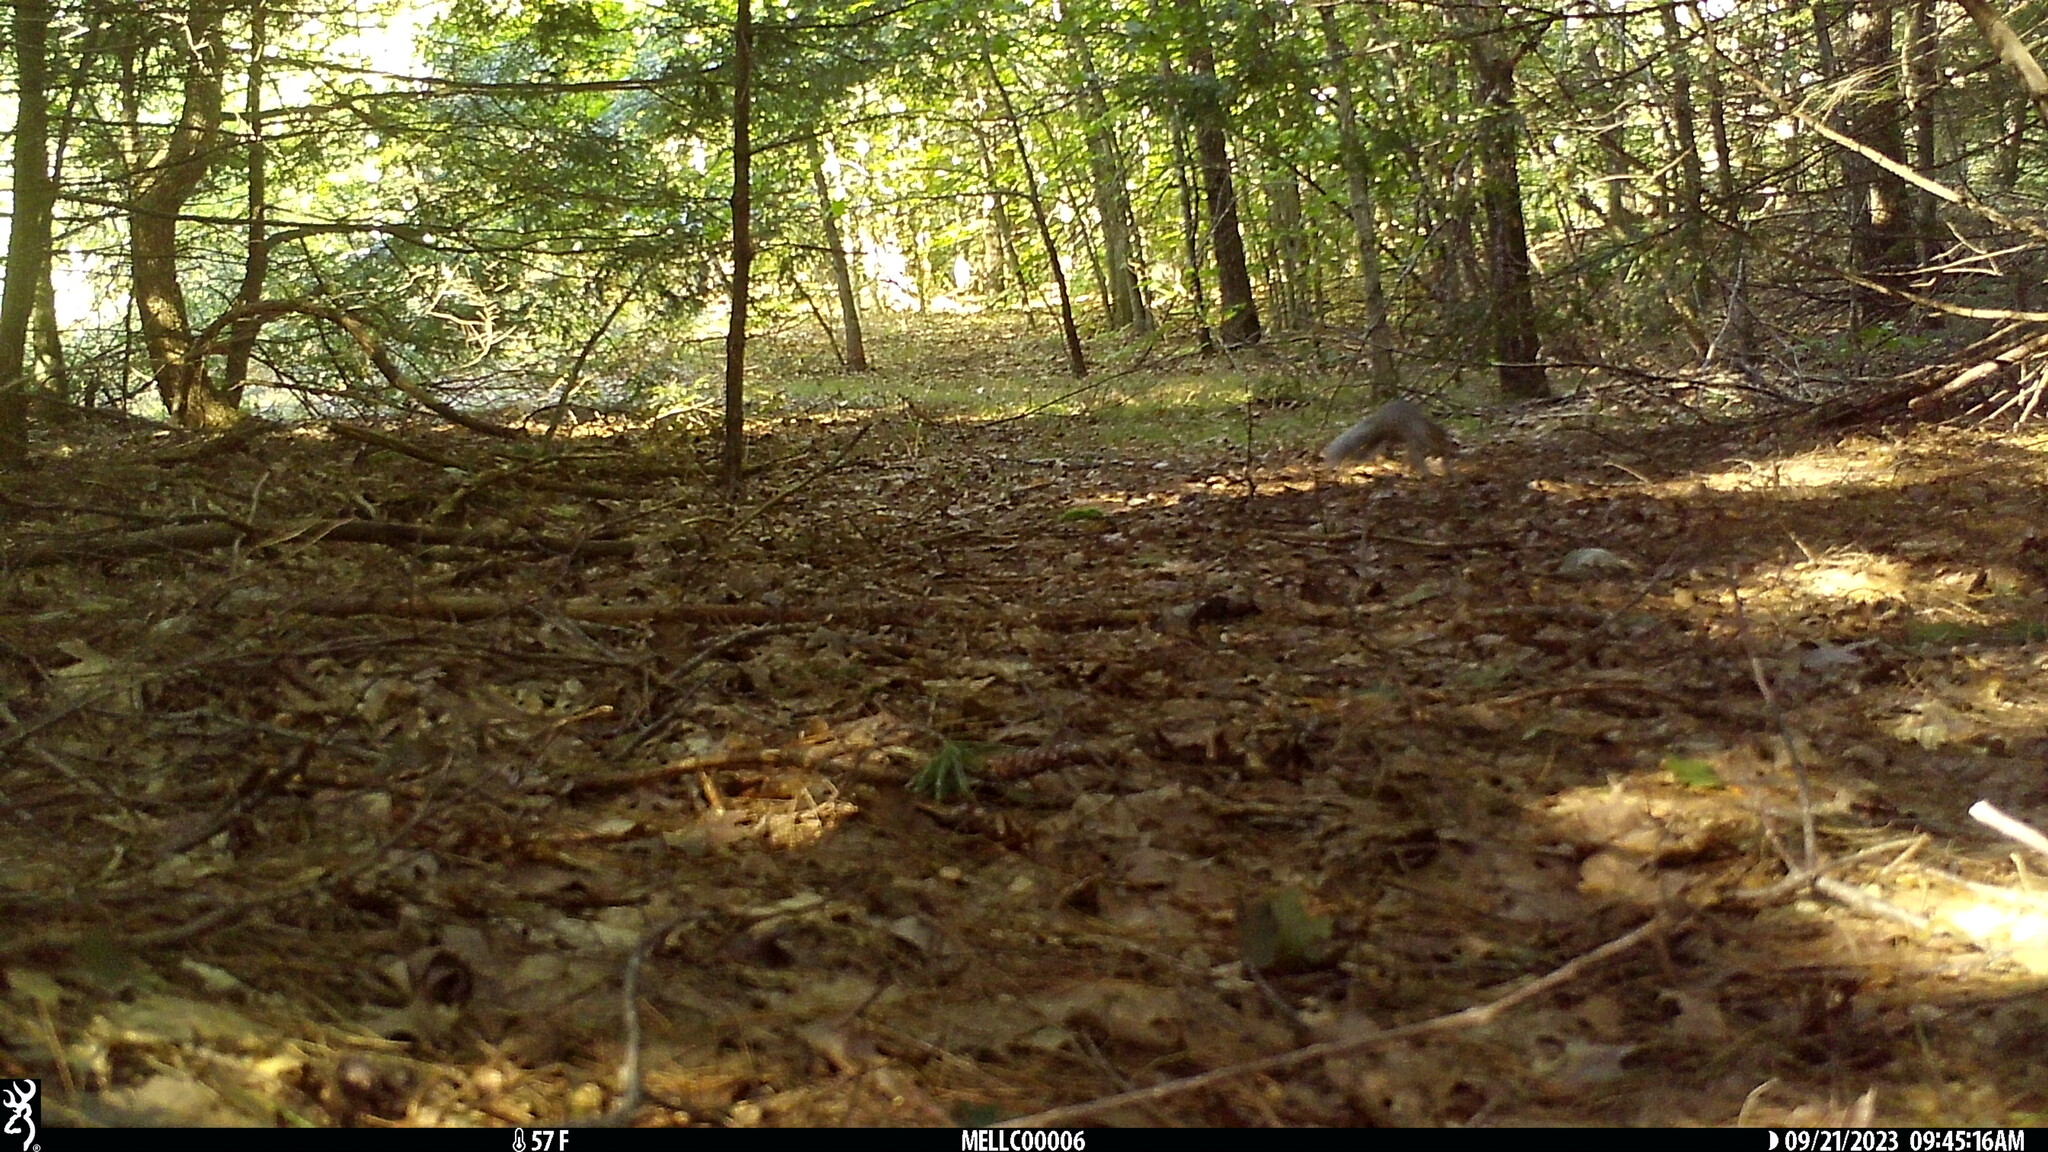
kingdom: Animalia
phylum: Chordata
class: Mammalia
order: Rodentia
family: Sciuridae
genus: Sciurus
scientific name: Sciurus carolinensis
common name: Eastern gray squirrel
